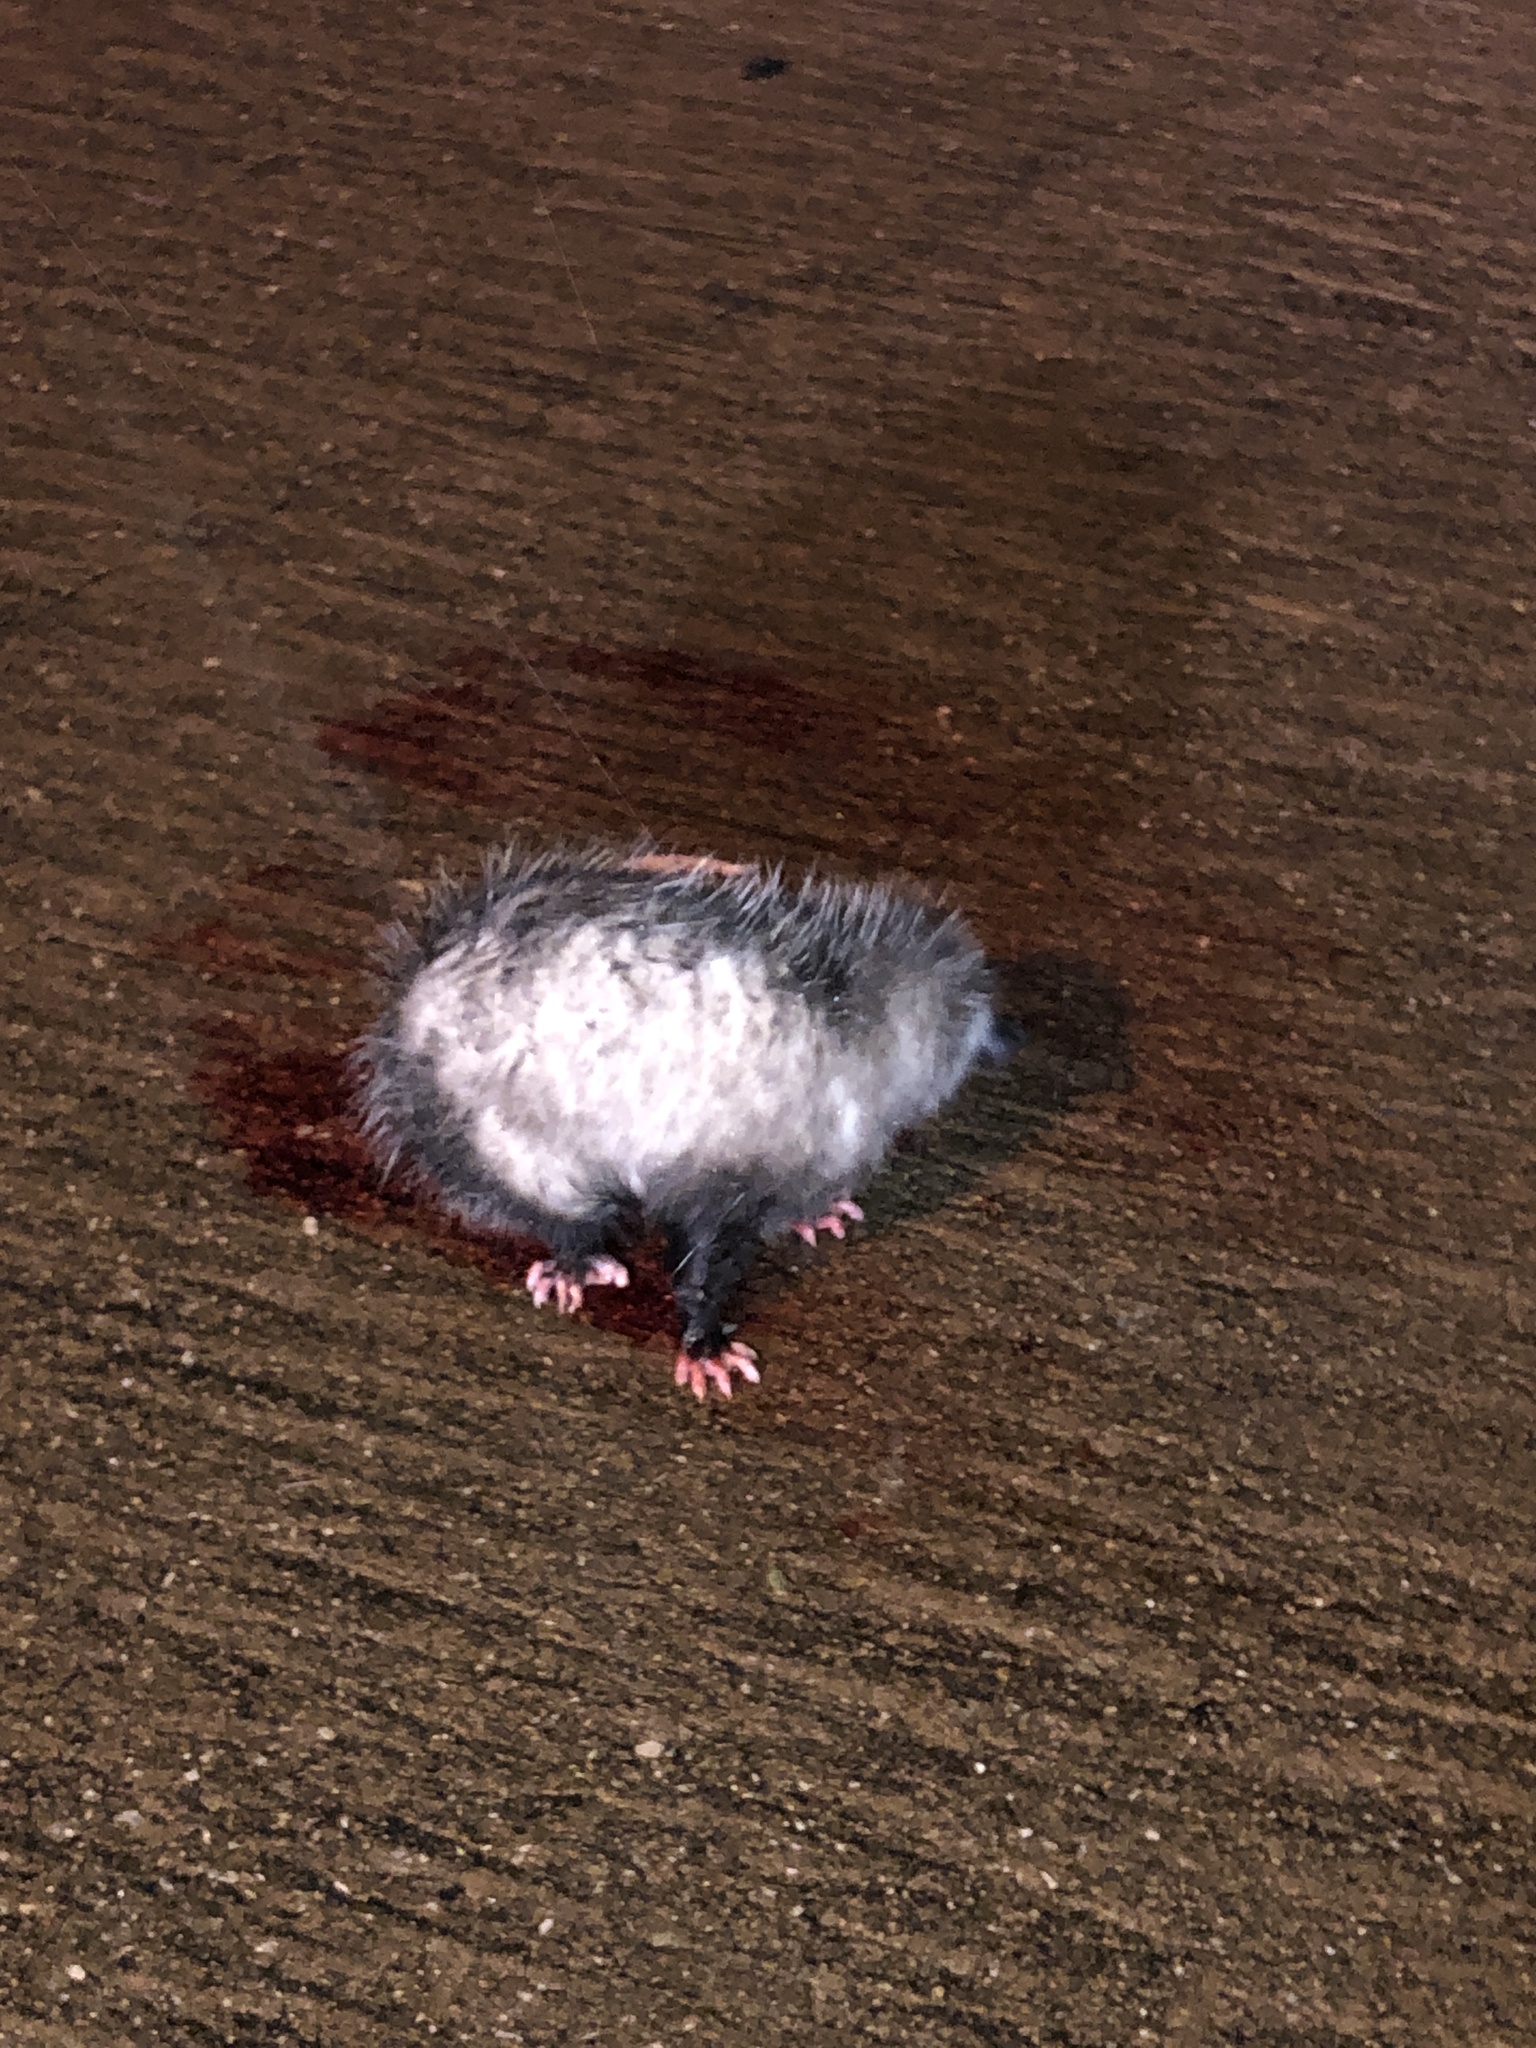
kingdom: Animalia
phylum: Chordata
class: Mammalia
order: Didelphimorphia
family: Didelphidae
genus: Didelphis
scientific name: Didelphis virginiana
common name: Virginia opossum
